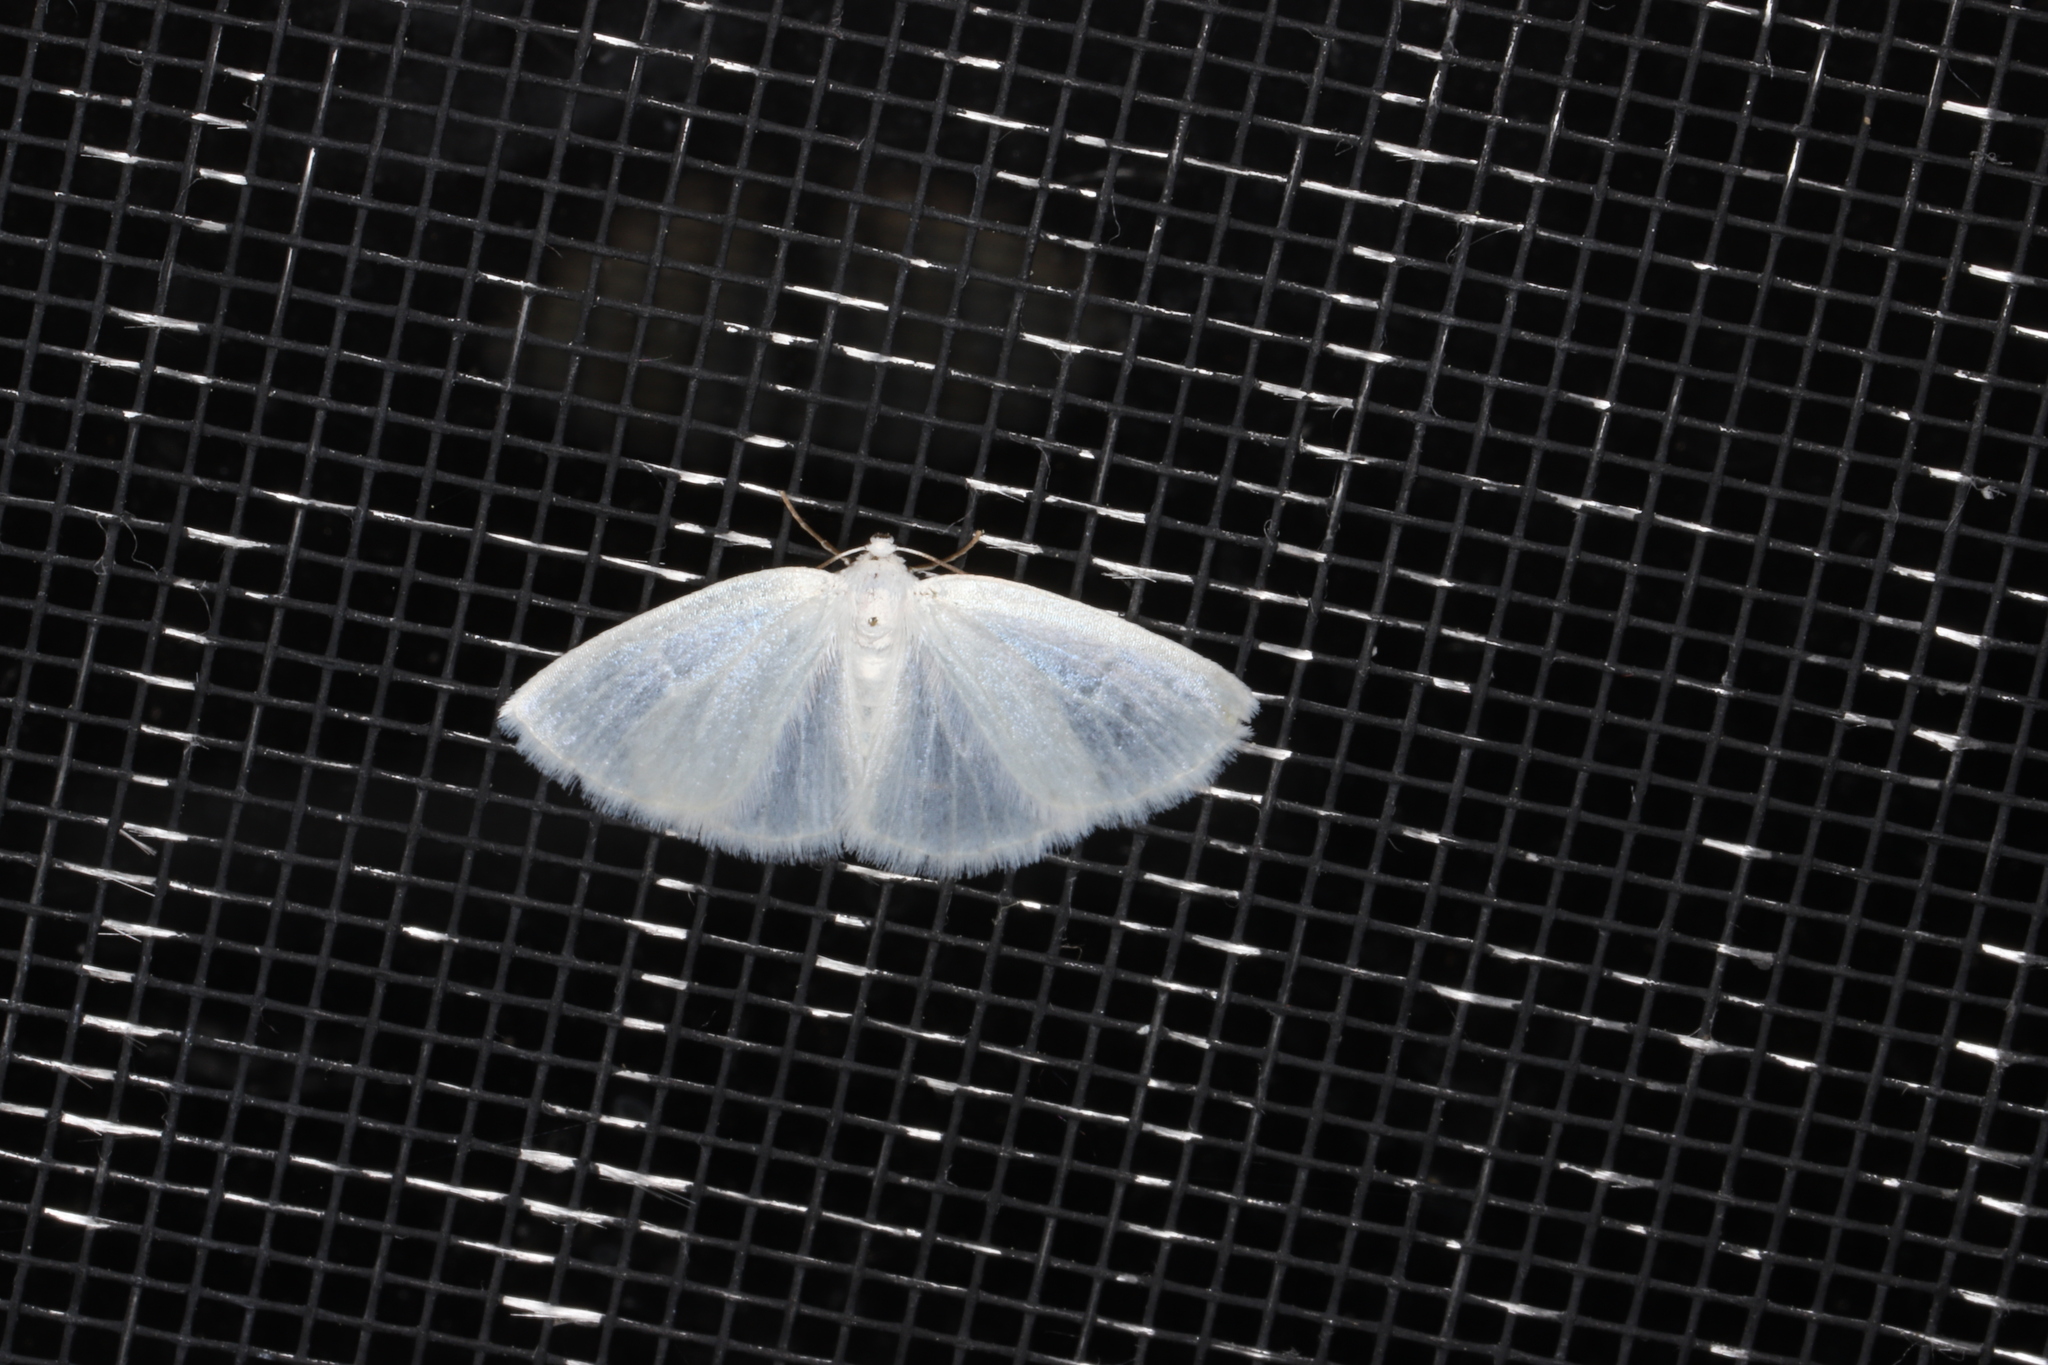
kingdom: Animalia
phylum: Arthropoda
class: Insecta
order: Lepidoptera
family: Geometridae
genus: Lomographa
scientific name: Lomographa vestaliata
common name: White spring moth
